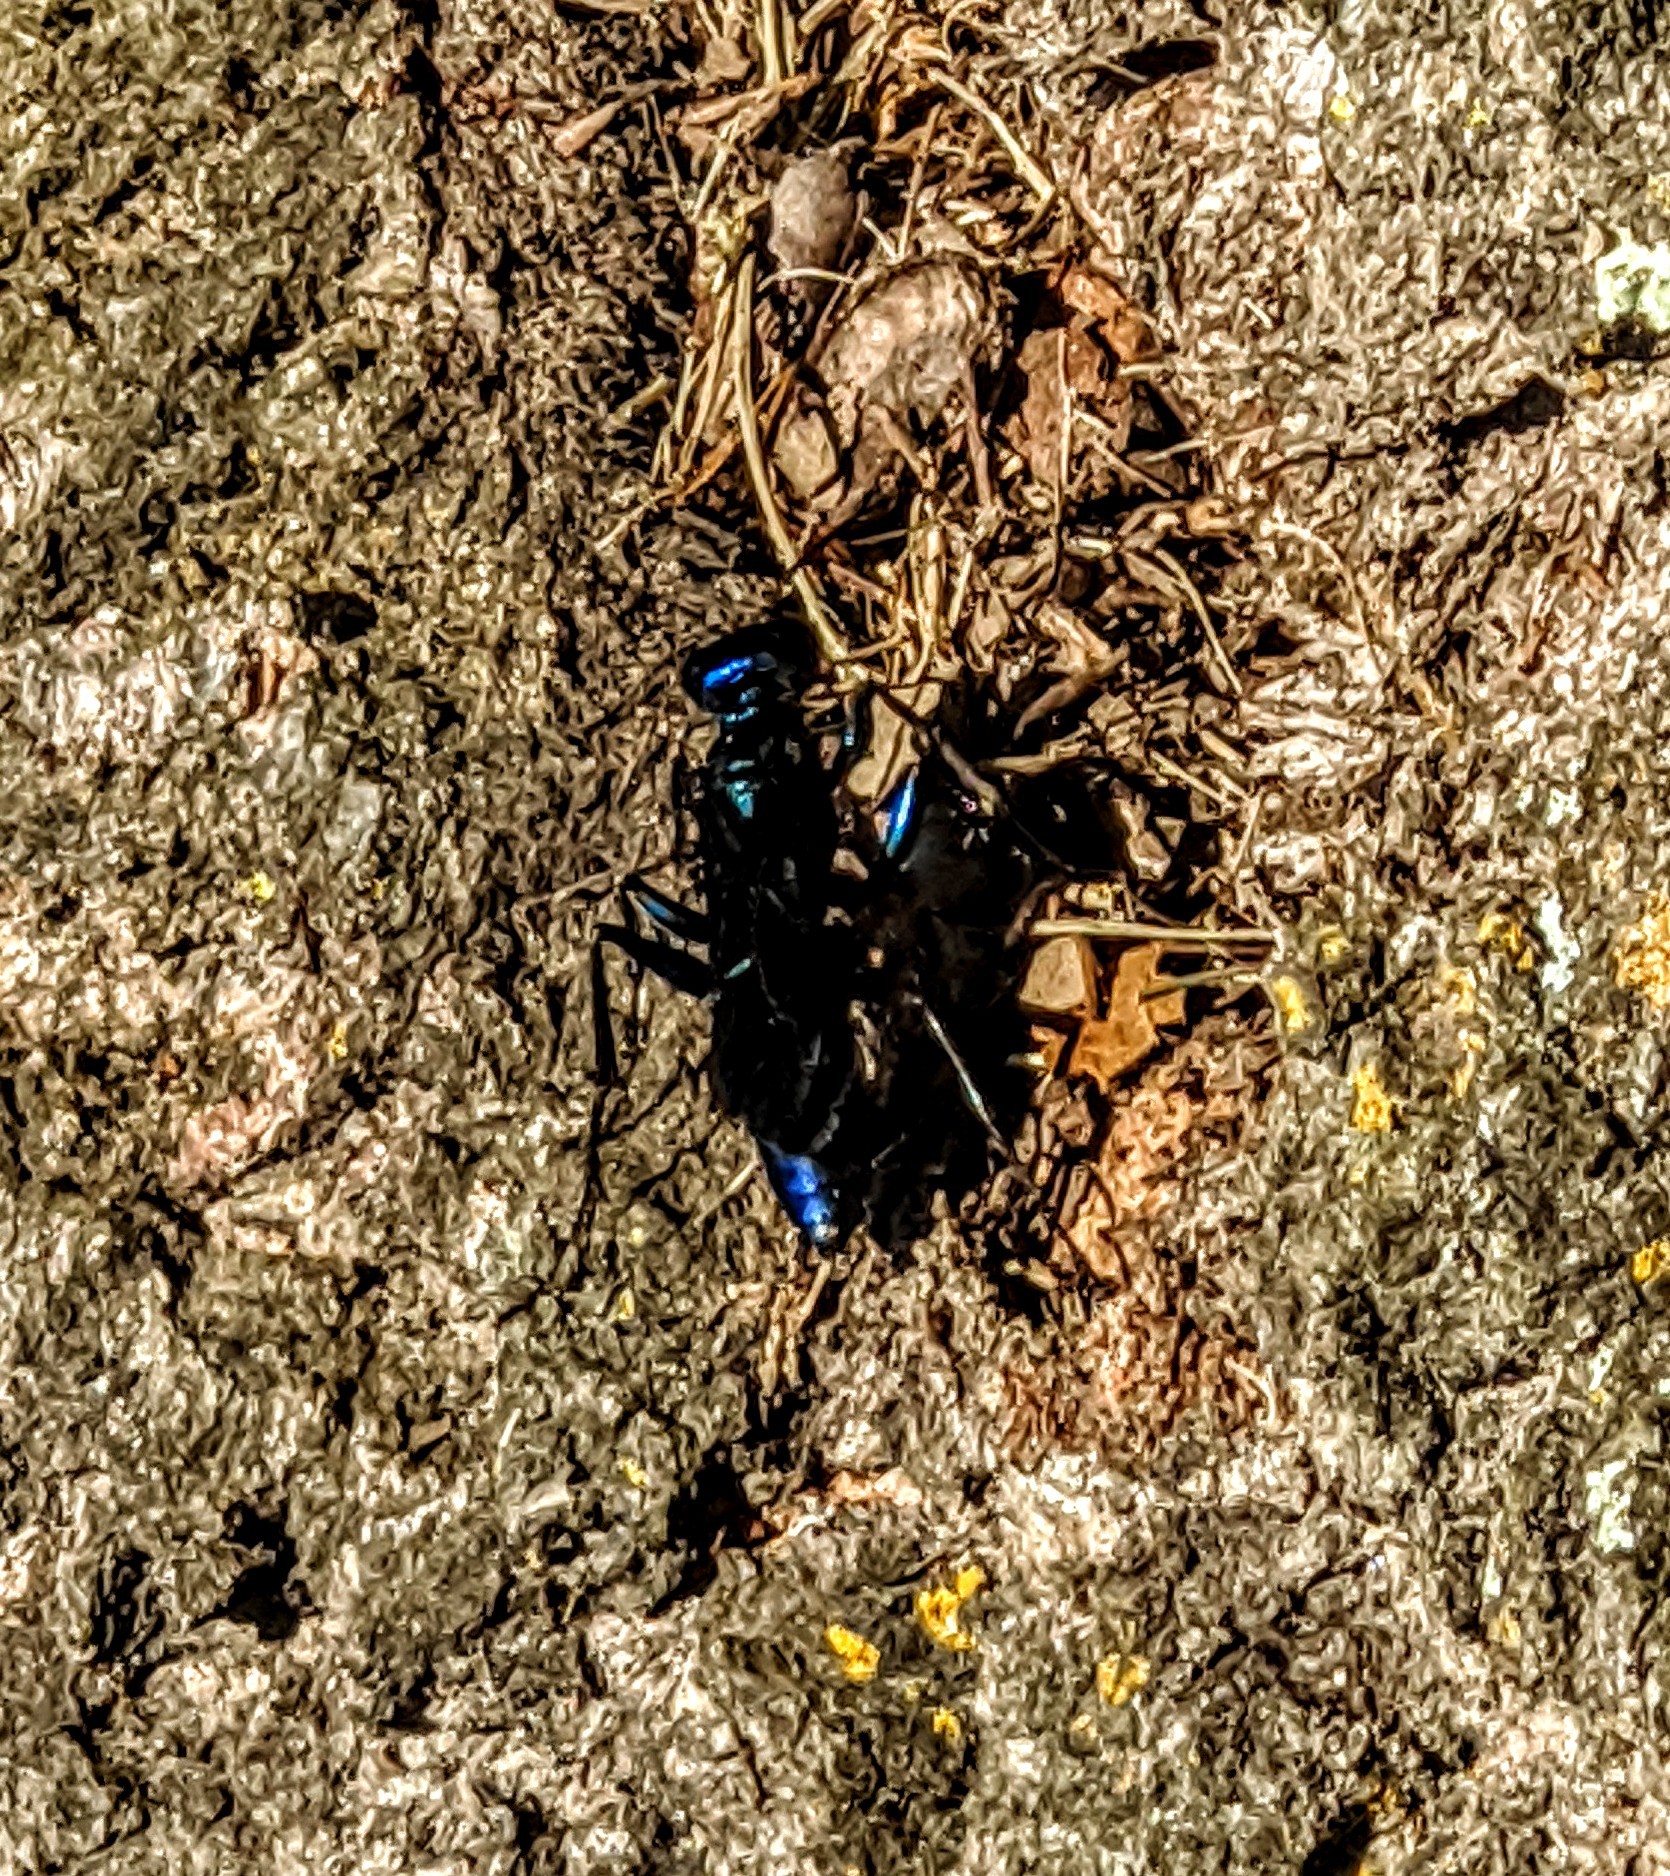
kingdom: Animalia
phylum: Arthropoda
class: Insecta
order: Hymenoptera
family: Sphecidae
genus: Chlorion
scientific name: Chlorion aerarium
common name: Steel-blue cricket hunter
